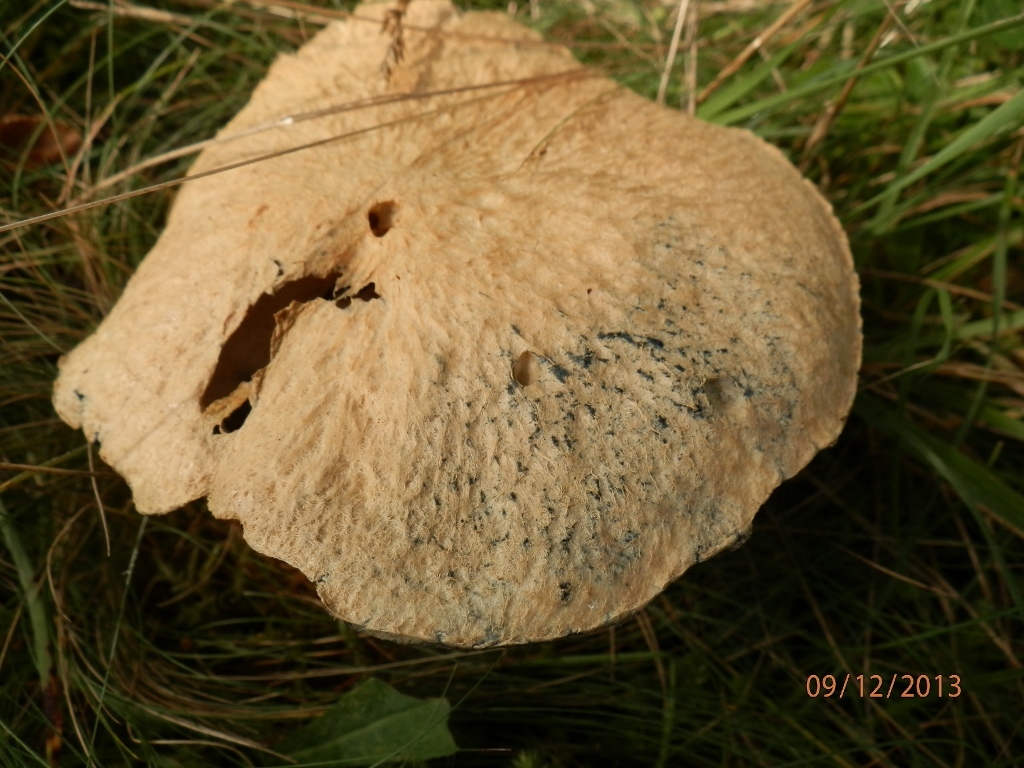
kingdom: Fungi
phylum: Basidiomycota
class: Agaricomycetes
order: Boletales
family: Gyroporaceae
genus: Gyroporus
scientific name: Gyroporus cyanescens
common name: Cornflower bolete
